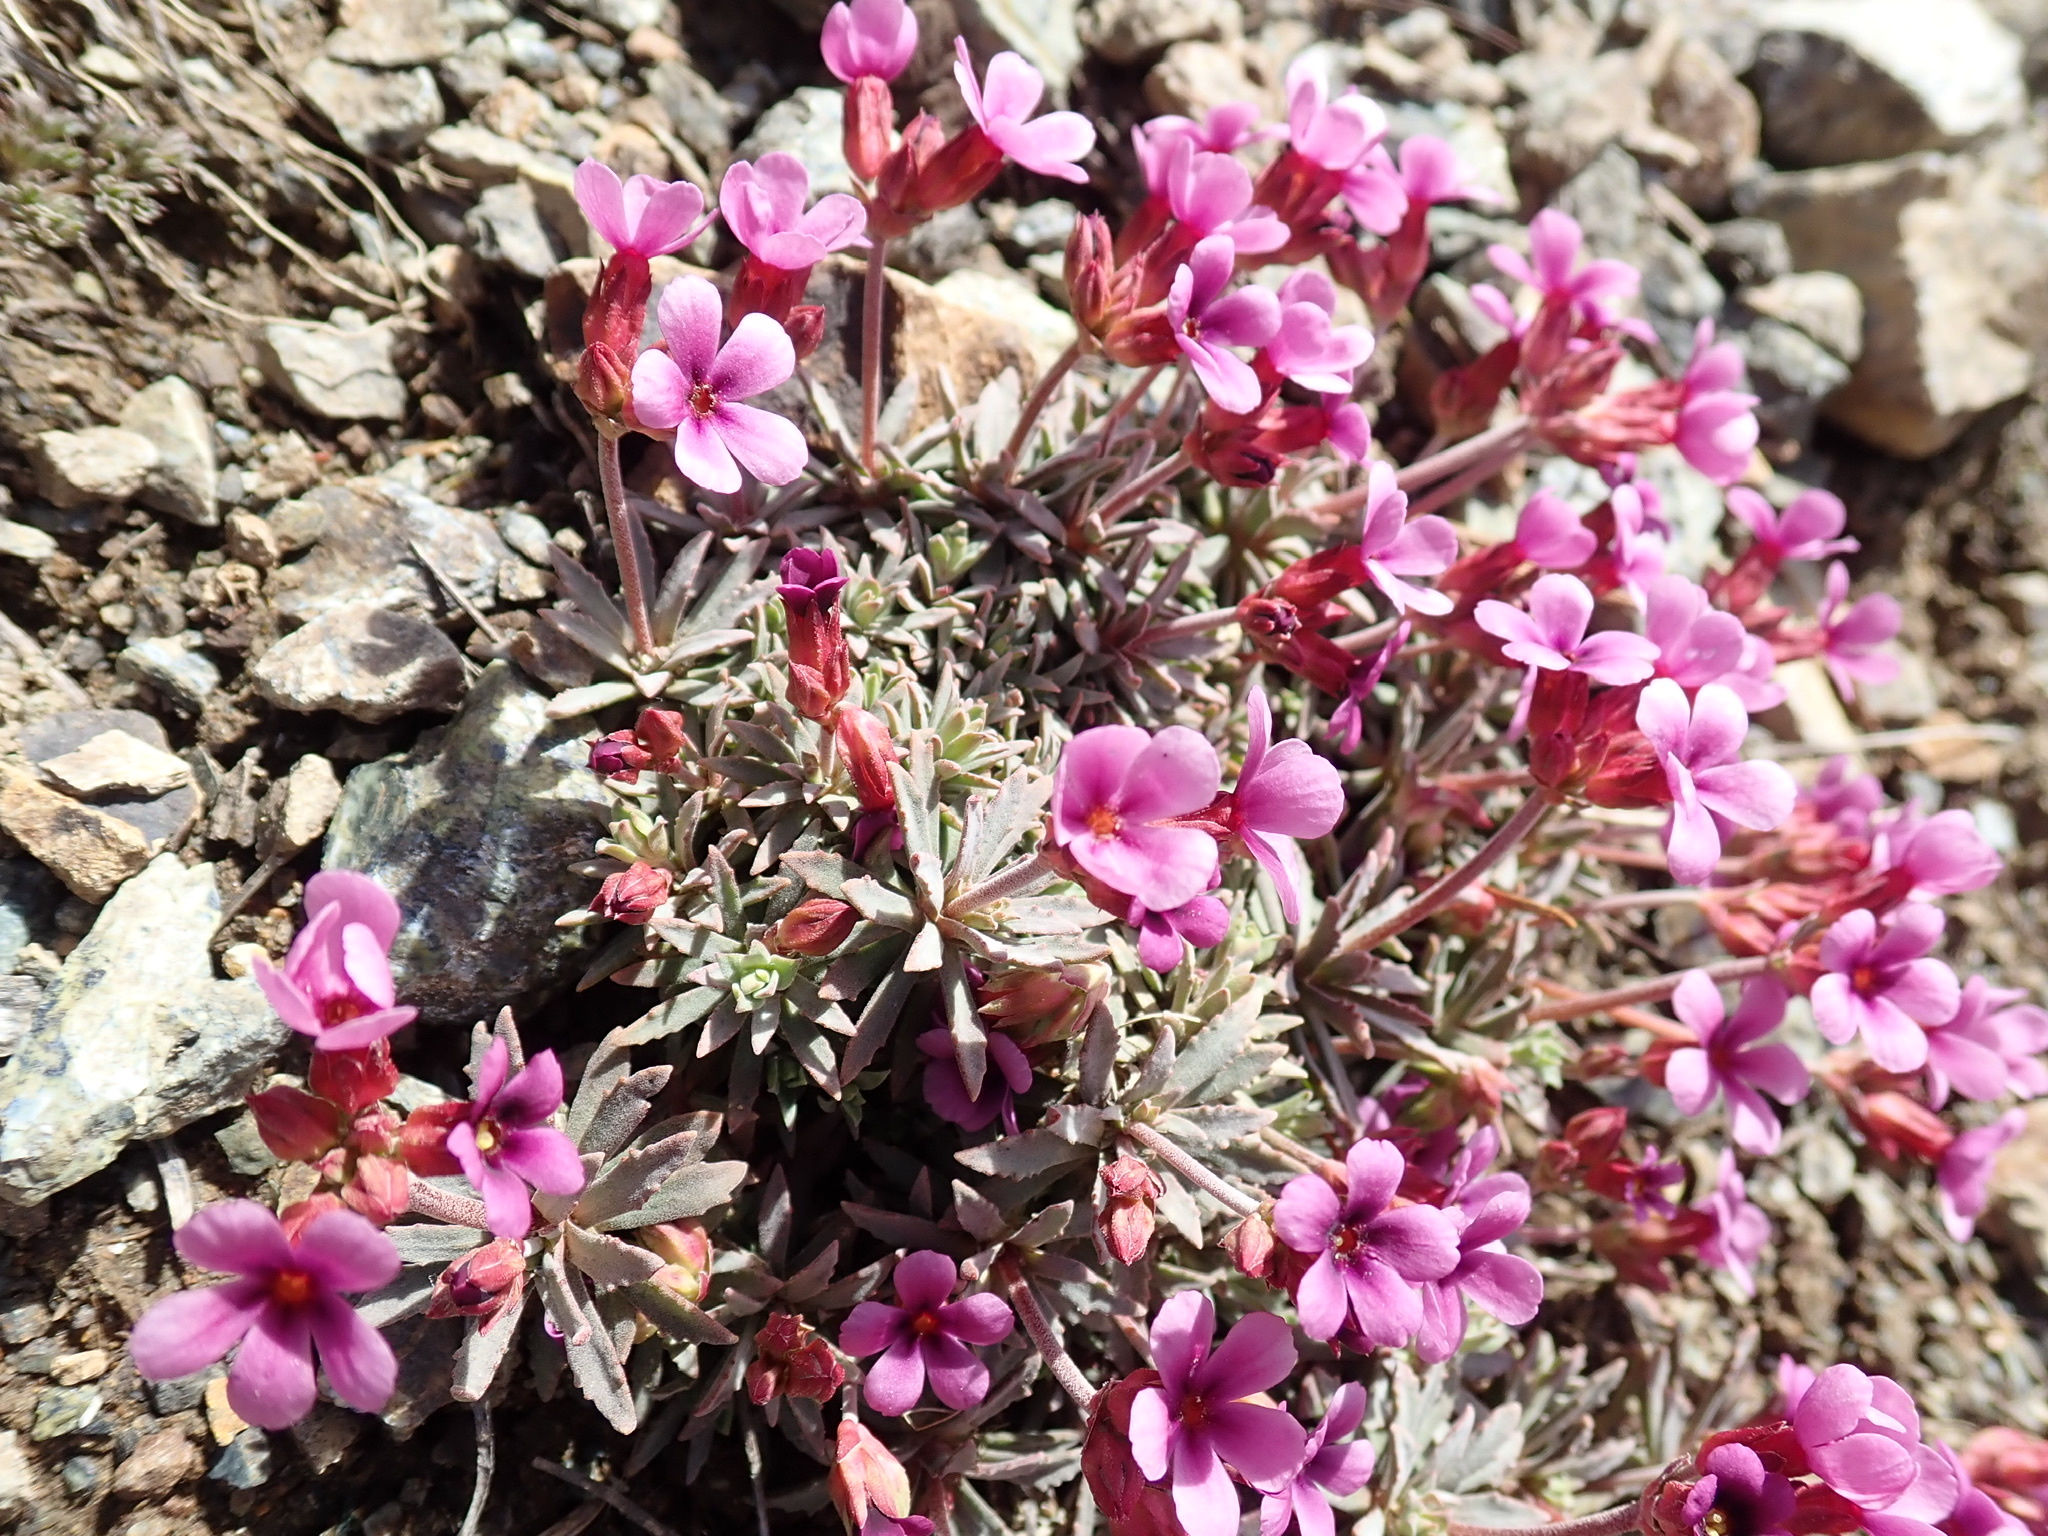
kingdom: Plantae
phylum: Tracheophyta
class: Magnoliopsida
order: Ericales
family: Primulaceae
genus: Androsace
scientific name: Androsace nivalis
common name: Snow dwarf-primrose
